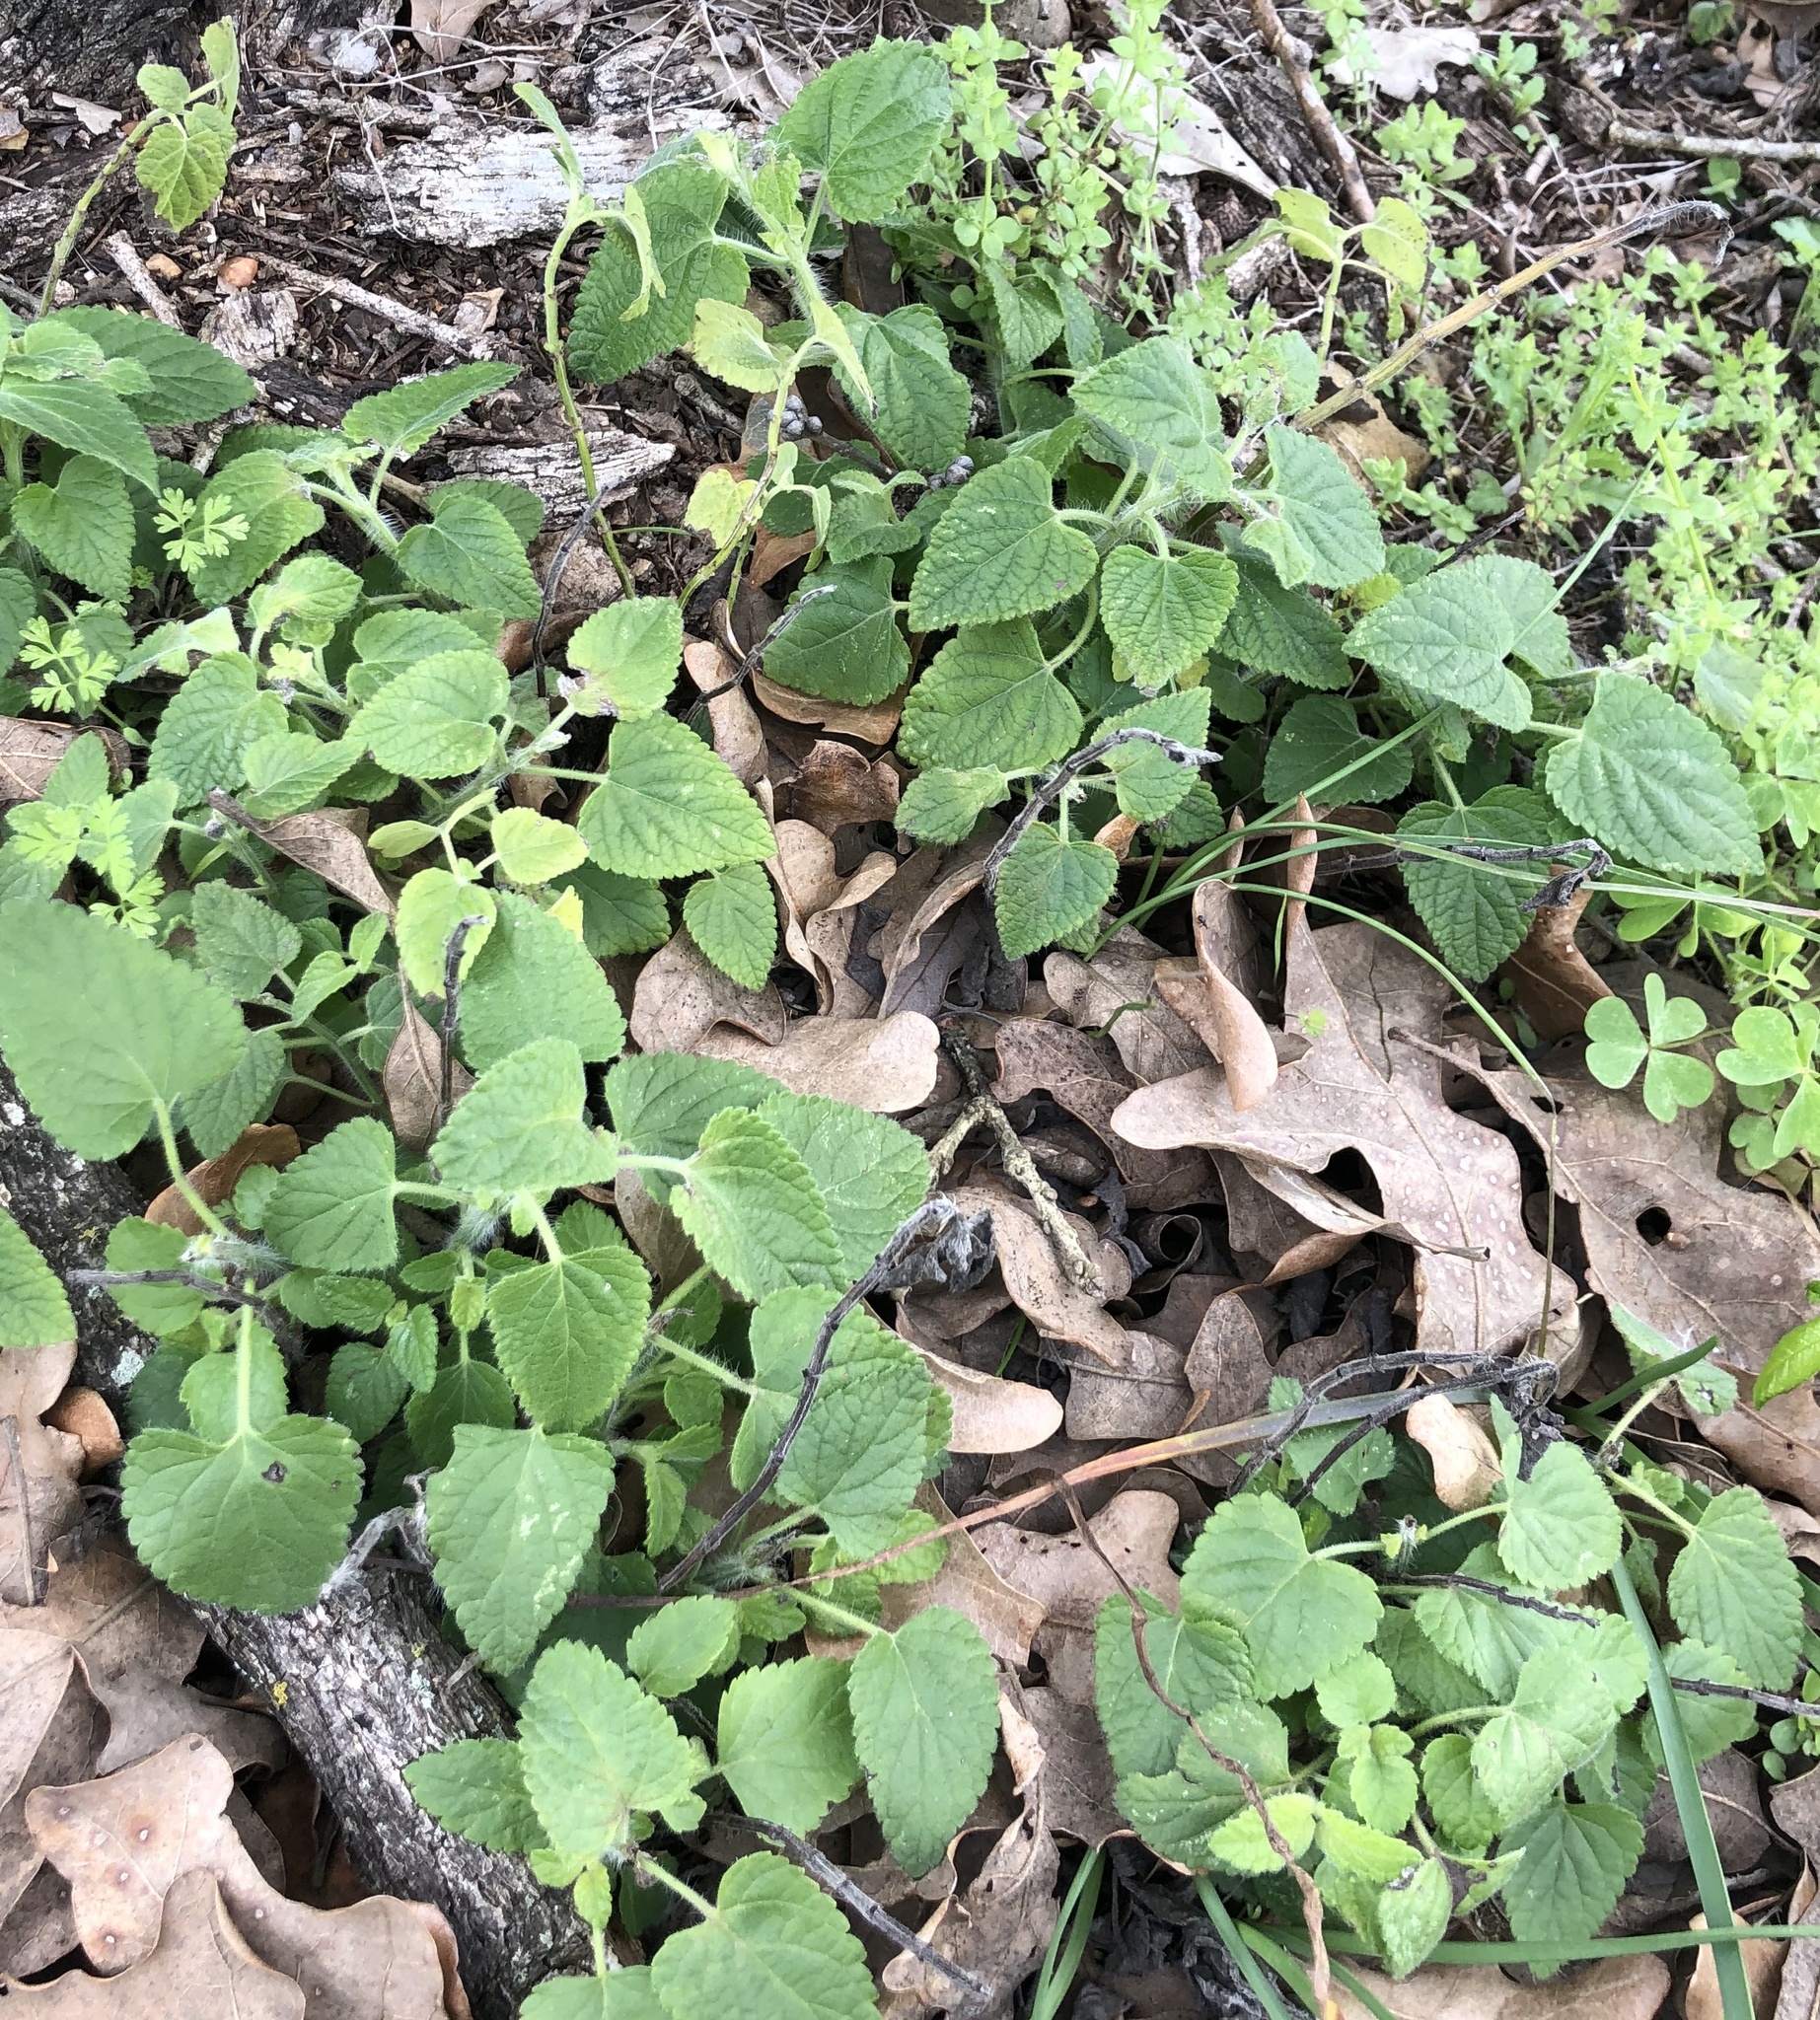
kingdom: Plantae
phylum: Tracheophyta
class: Magnoliopsida
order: Lamiales
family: Lamiaceae
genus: Salvia
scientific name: Salvia coccinea
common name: Blood sage
